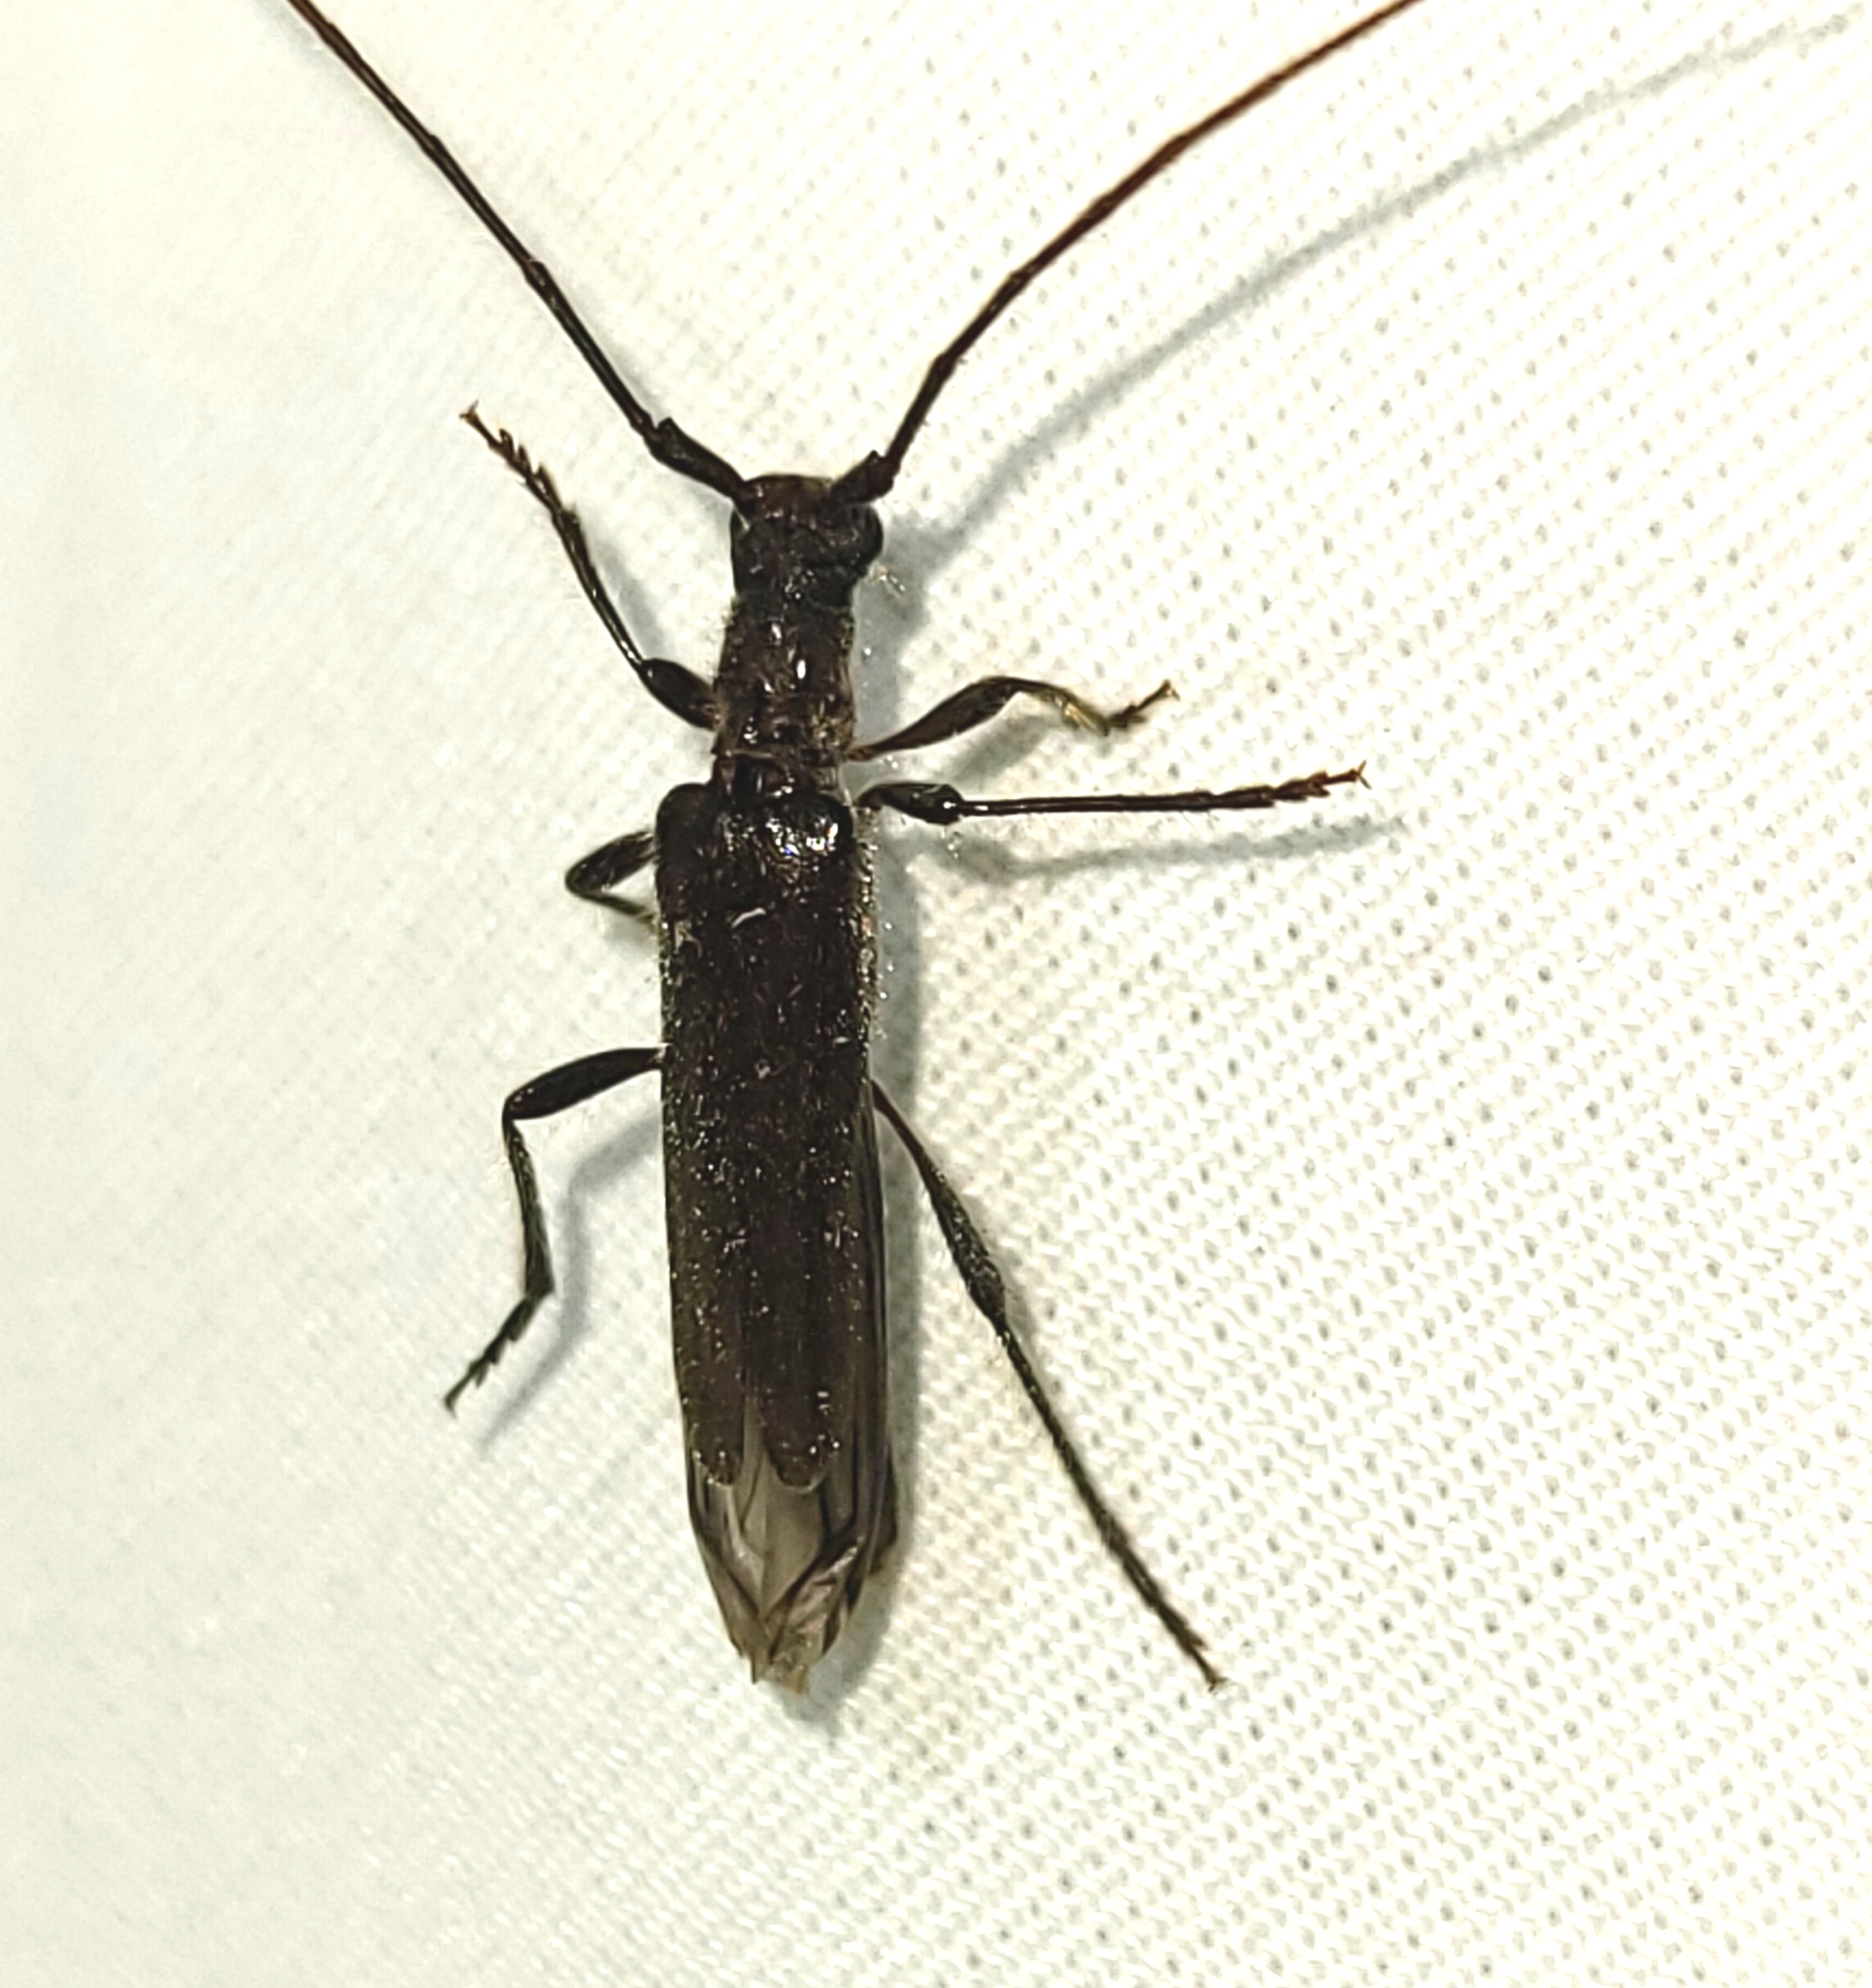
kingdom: Animalia
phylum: Arthropoda
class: Insecta
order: Coleoptera
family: Cerambycidae
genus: Styloxus
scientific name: Styloxus fulleri
